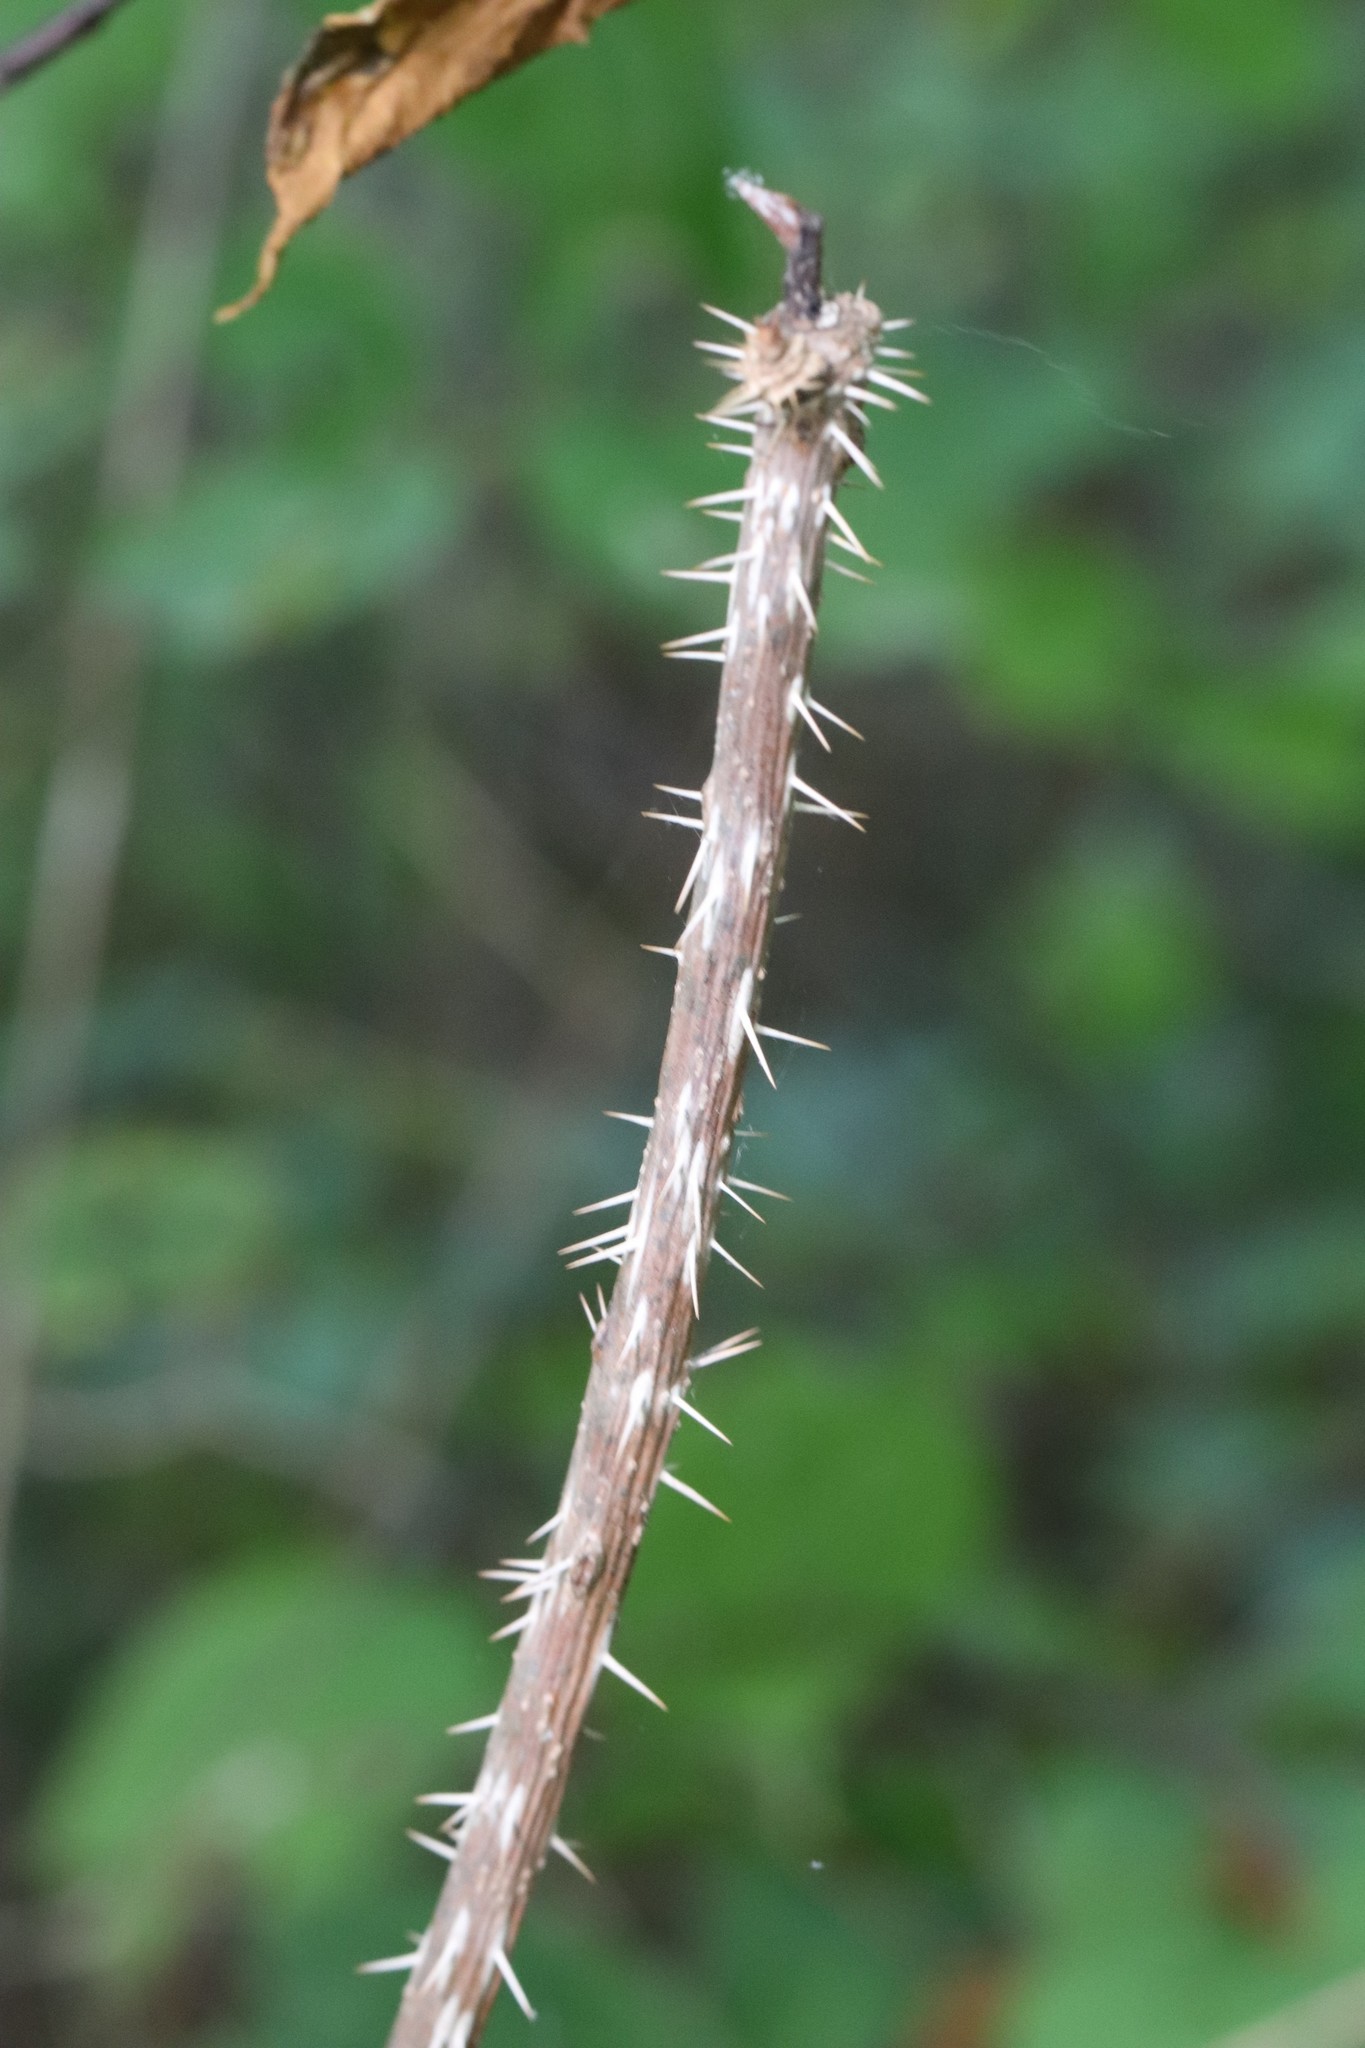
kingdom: Plantae
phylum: Tracheophyta
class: Magnoliopsida
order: Apiales
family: Araliaceae
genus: Eleutherococcus
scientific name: Eleutherococcus senticosus
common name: Siberian-ginseng
